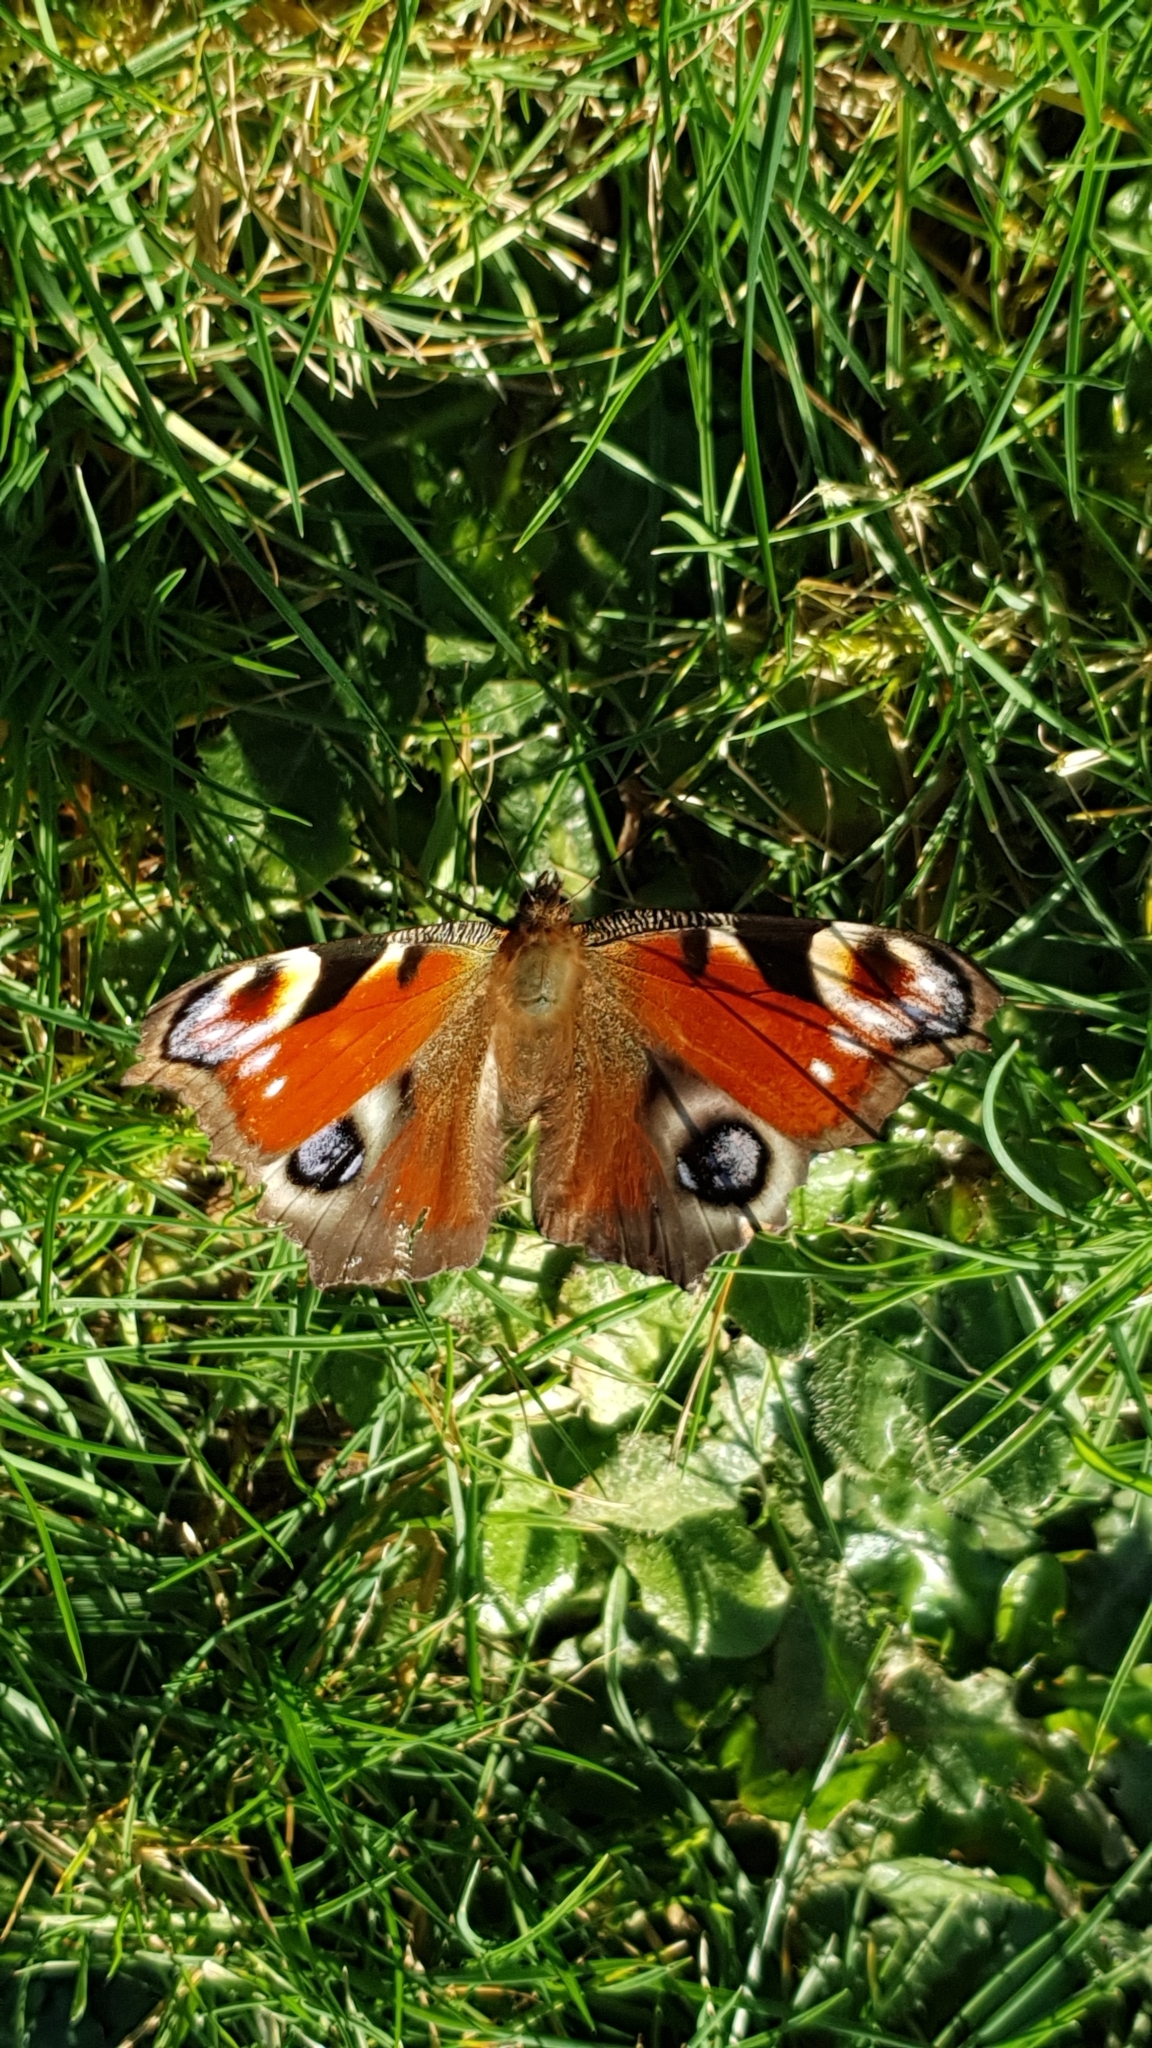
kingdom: Animalia
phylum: Arthropoda
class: Insecta
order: Lepidoptera
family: Nymphalidae
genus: Aglais
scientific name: Aglais io
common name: Peacock
